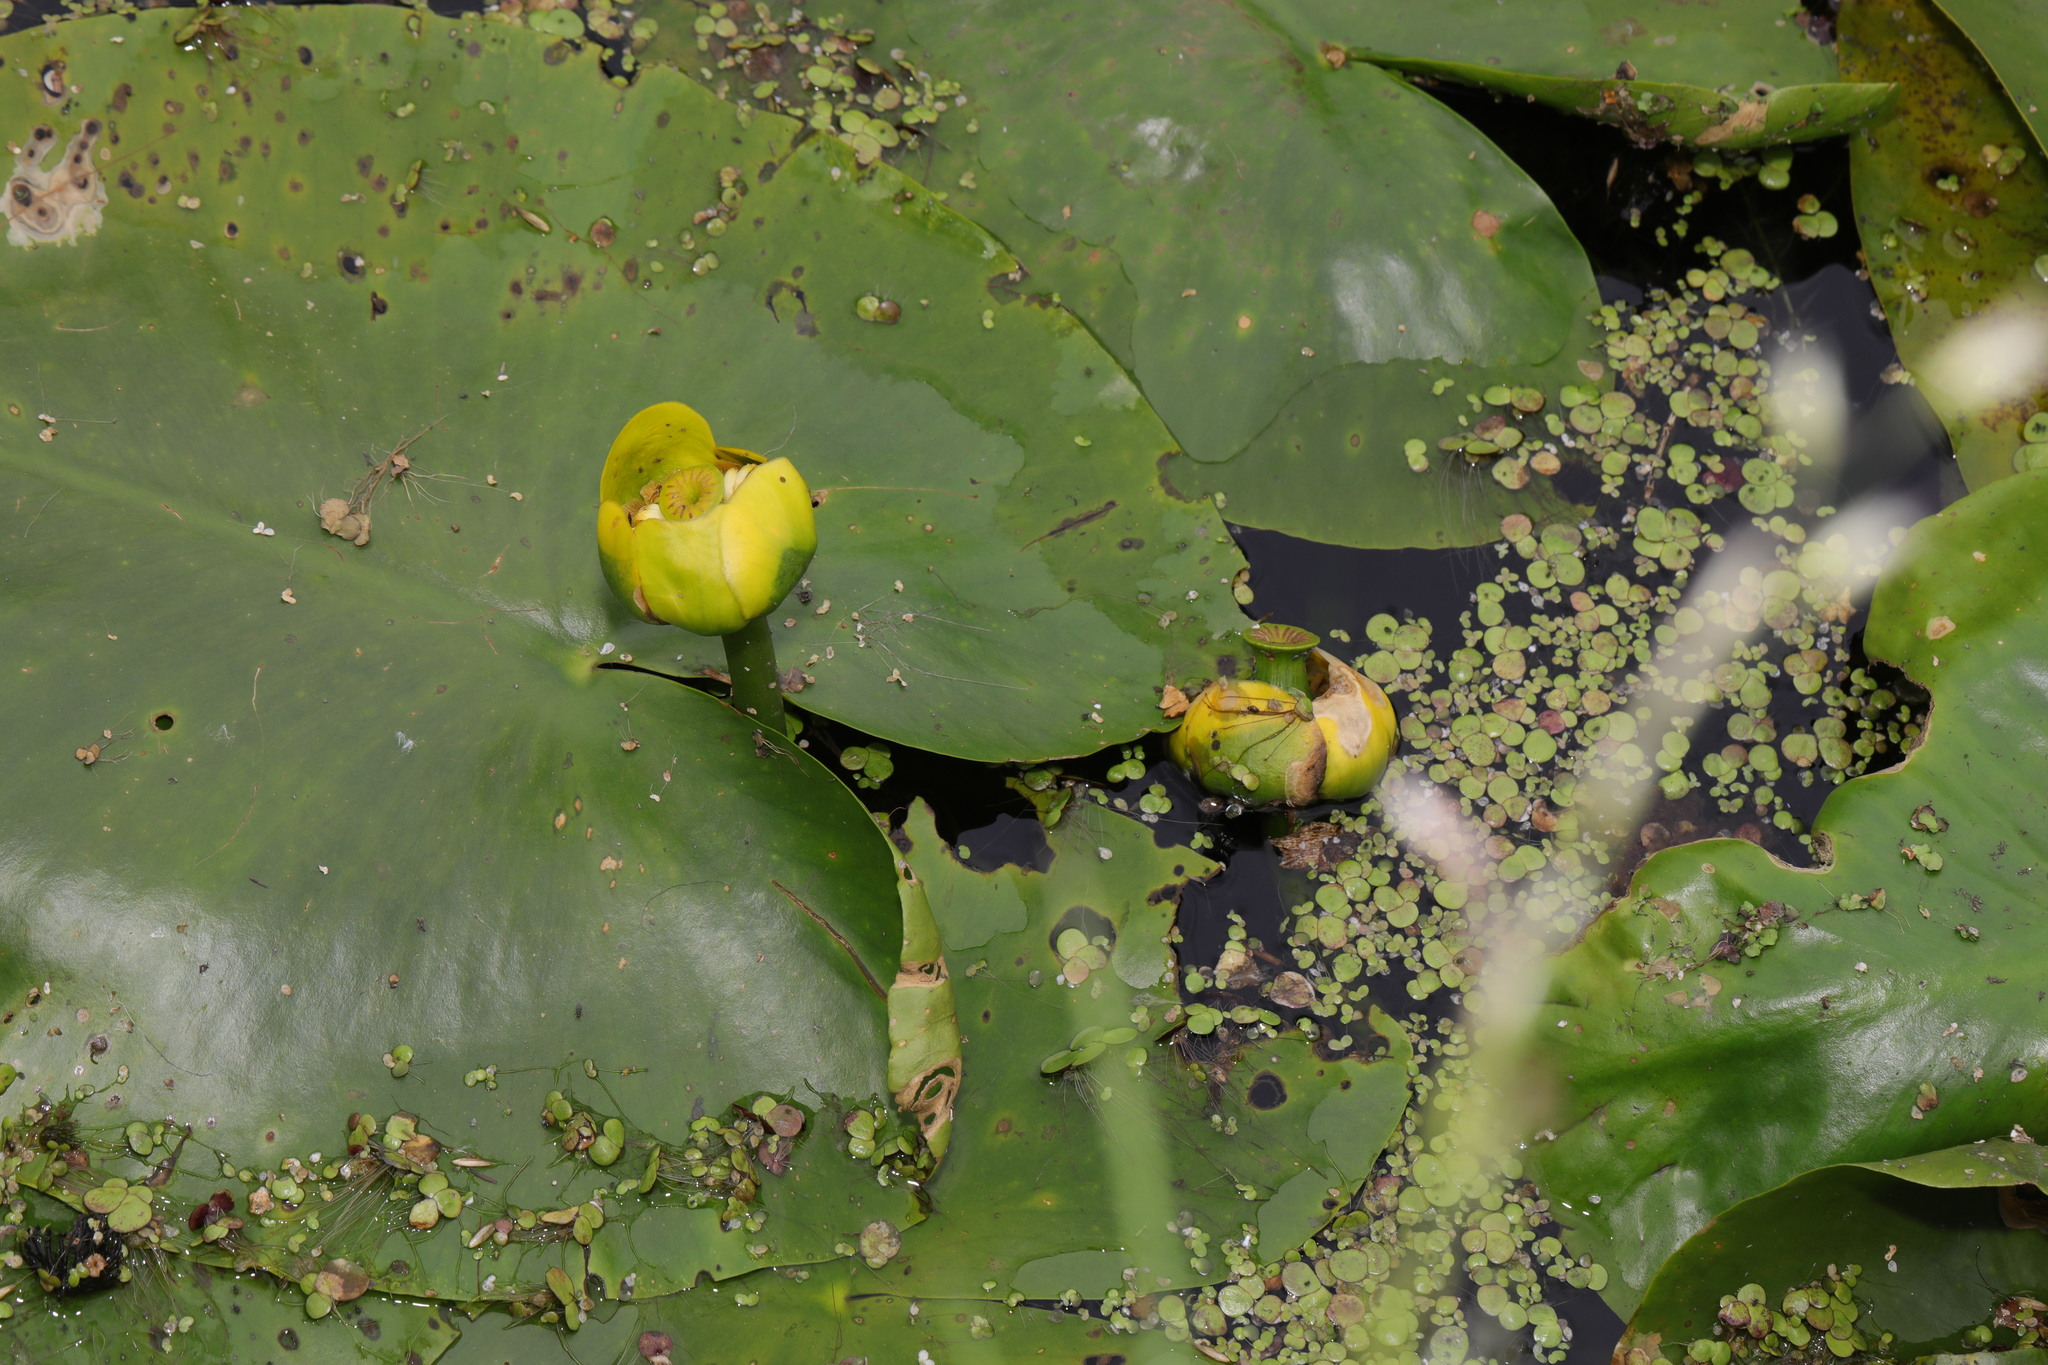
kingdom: Plantae
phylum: Tracheophyta
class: Magnoliopsida
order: Nymphaeales
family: Nymphaeaceae
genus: Nuphar
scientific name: Nuphar lutea
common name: Yellow water-lily
